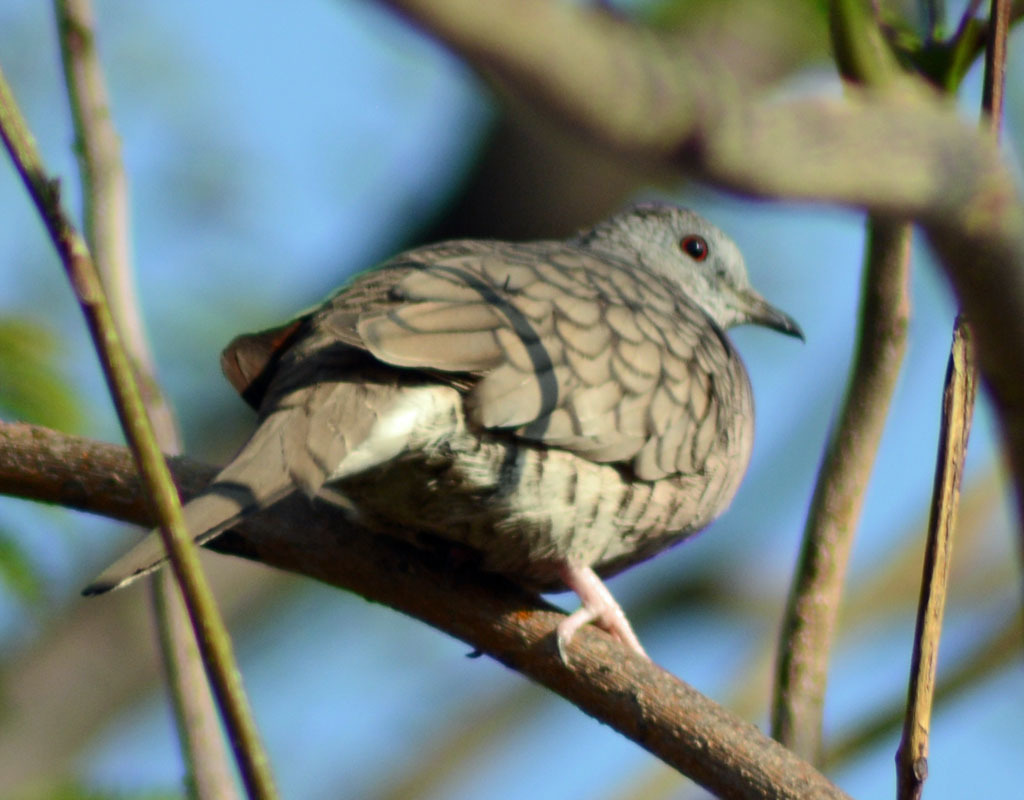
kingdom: Animalia
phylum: Chordata
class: Aves
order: Columbiformes
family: Columbidae
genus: Columbina
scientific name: Columbina inca
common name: Inca dove
